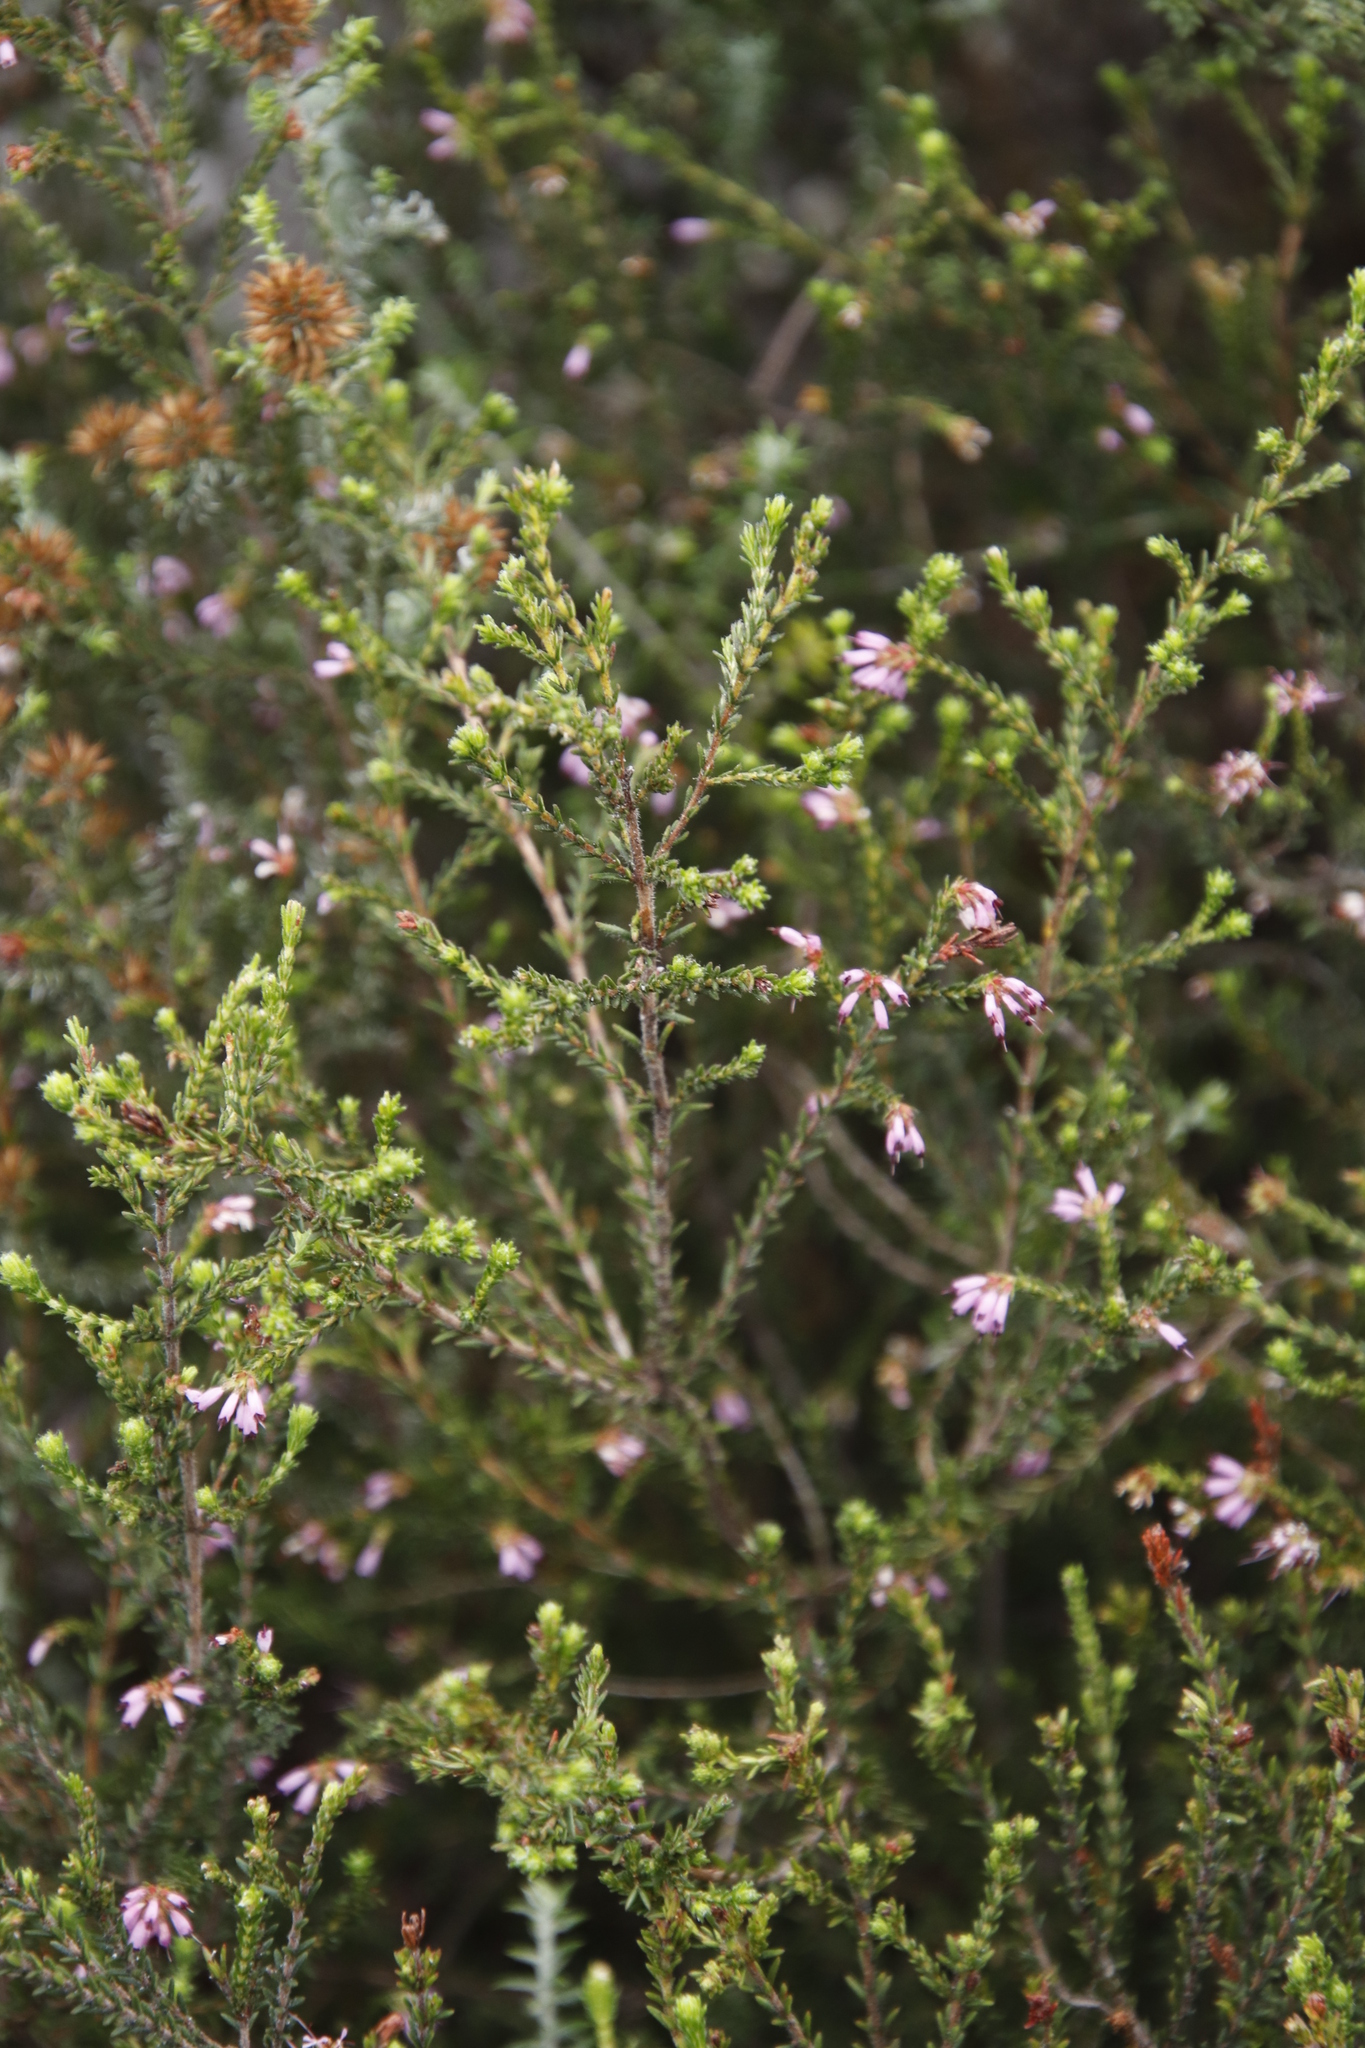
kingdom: Plantae
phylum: Tracheophyta
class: Magnoliopsida
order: Ericales
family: Ericaceae
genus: Erica
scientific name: Erica glabella
